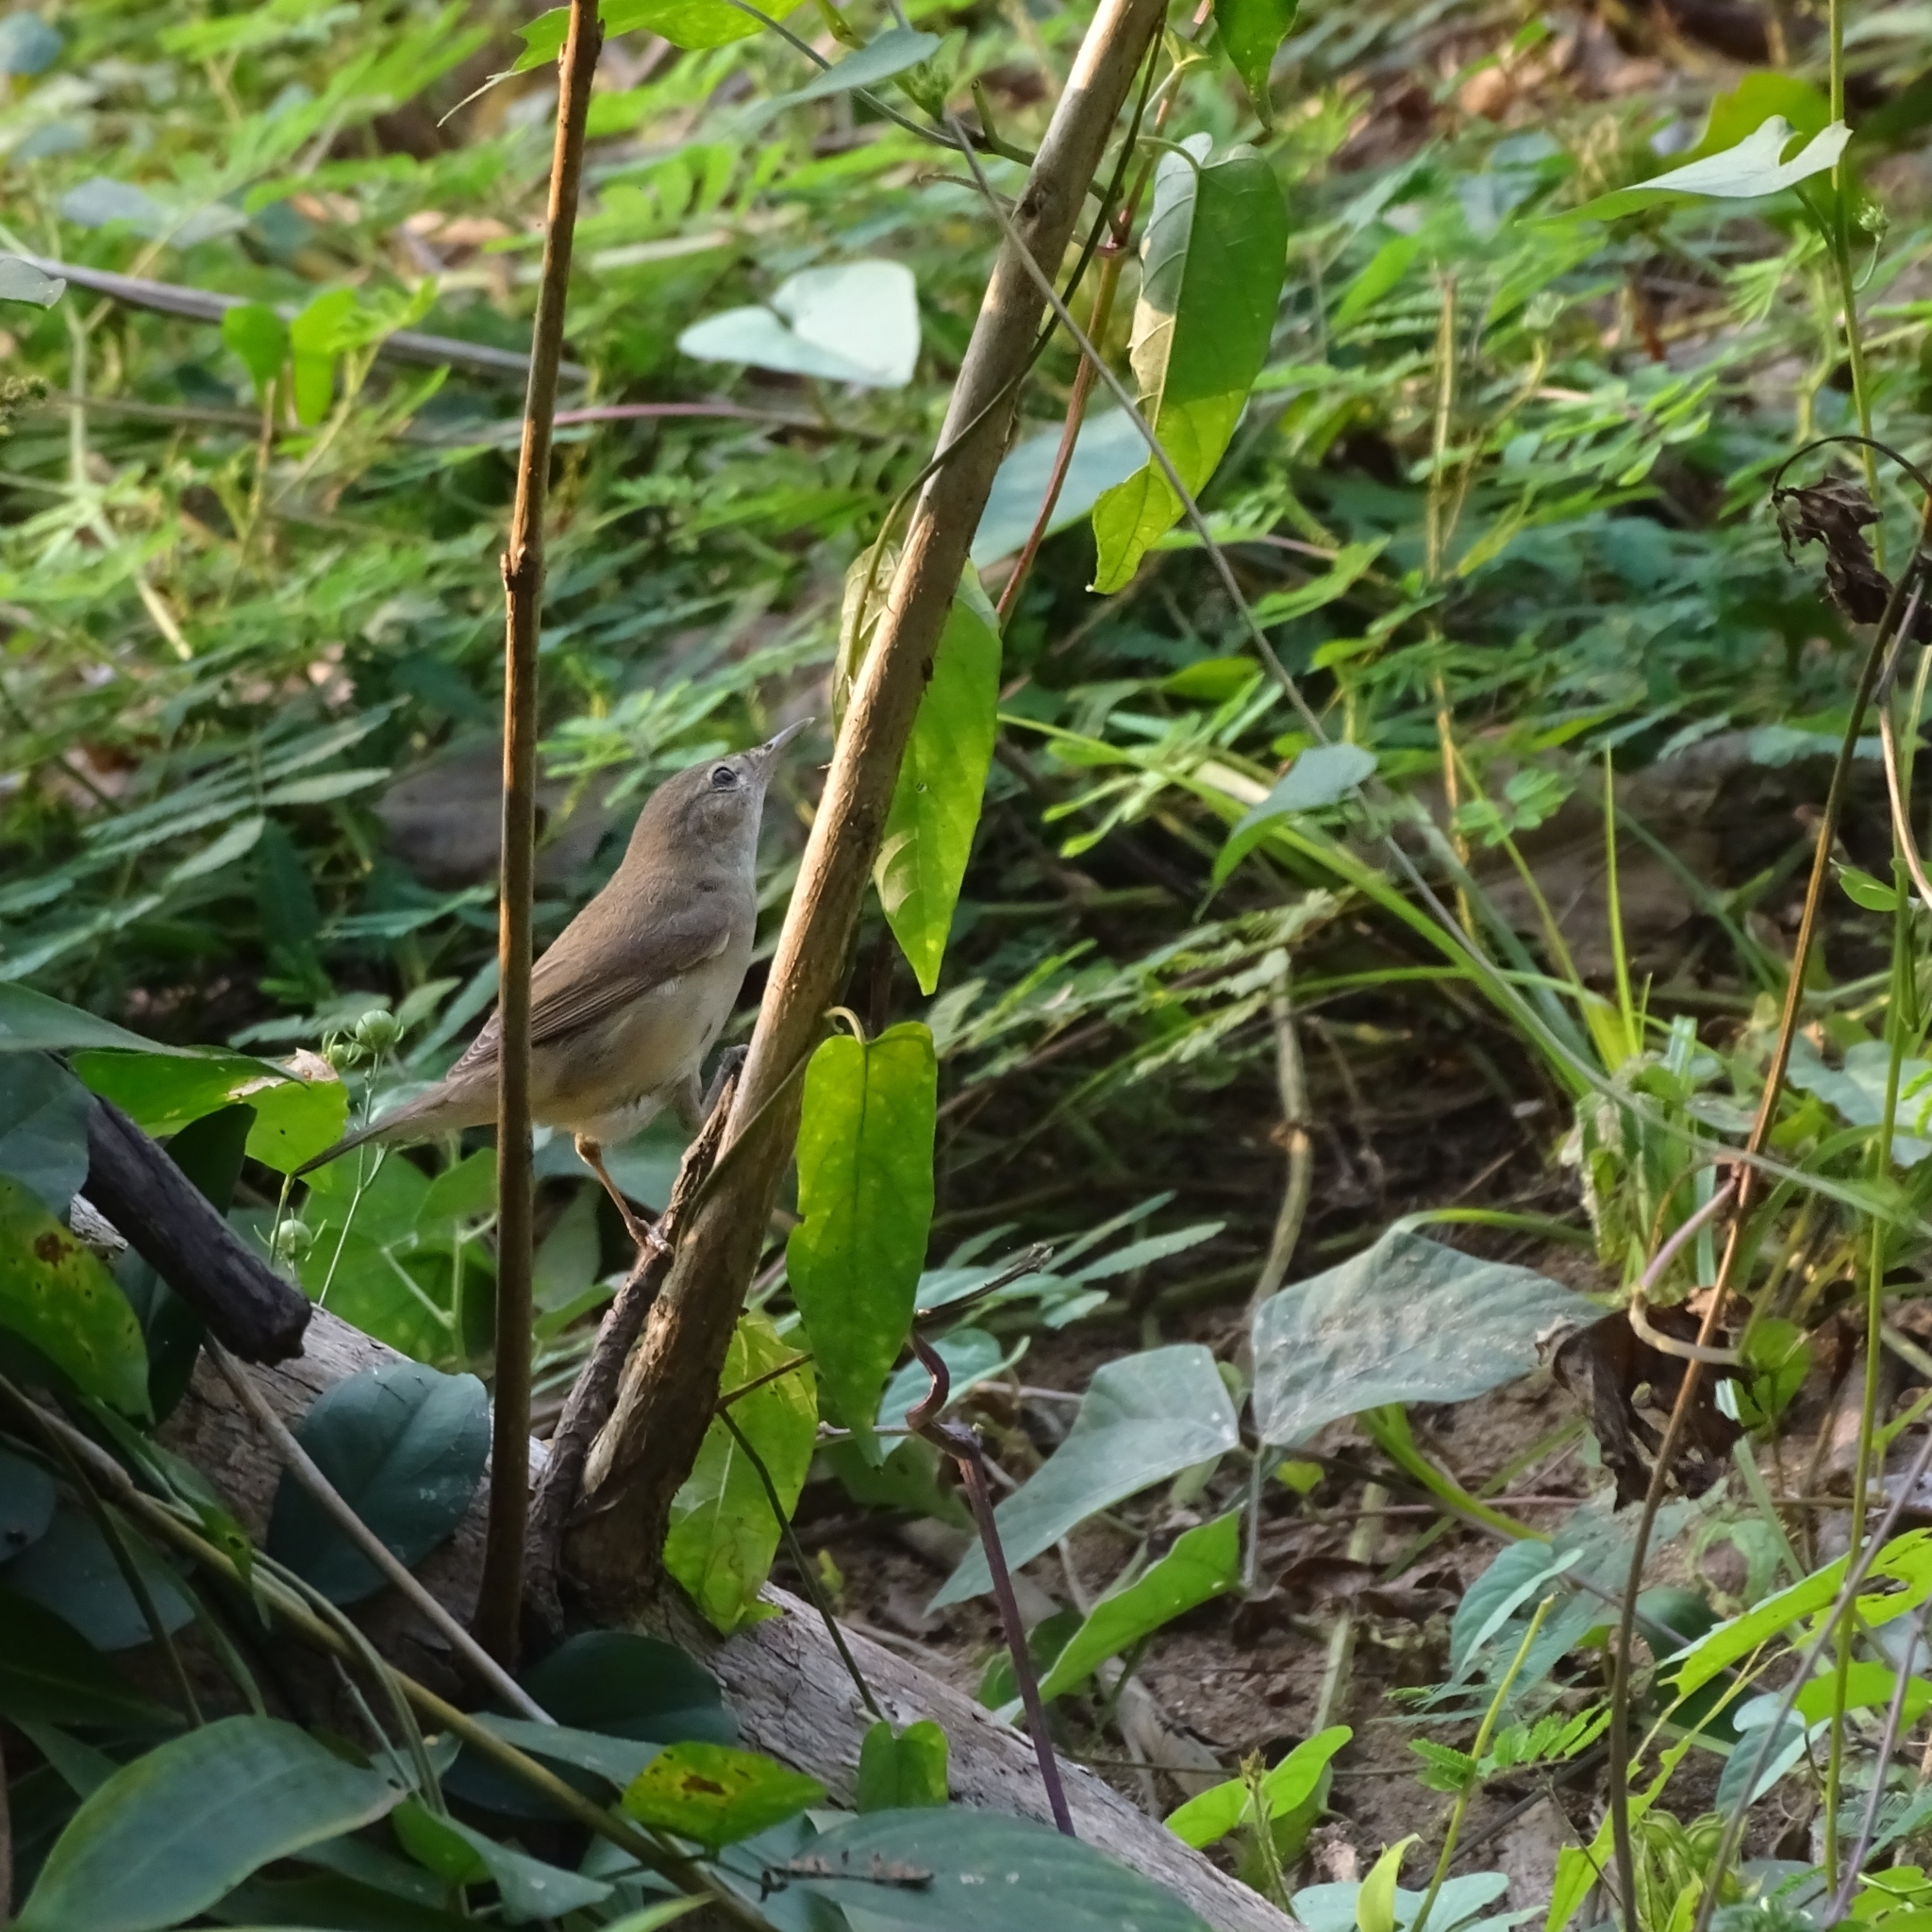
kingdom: Animalia
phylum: Chordata
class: Aves
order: Passeriformes
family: Acrocephalidae
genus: Acrocephalus
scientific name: Acrocephalus dumetorum
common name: Blyth's reed warbler
